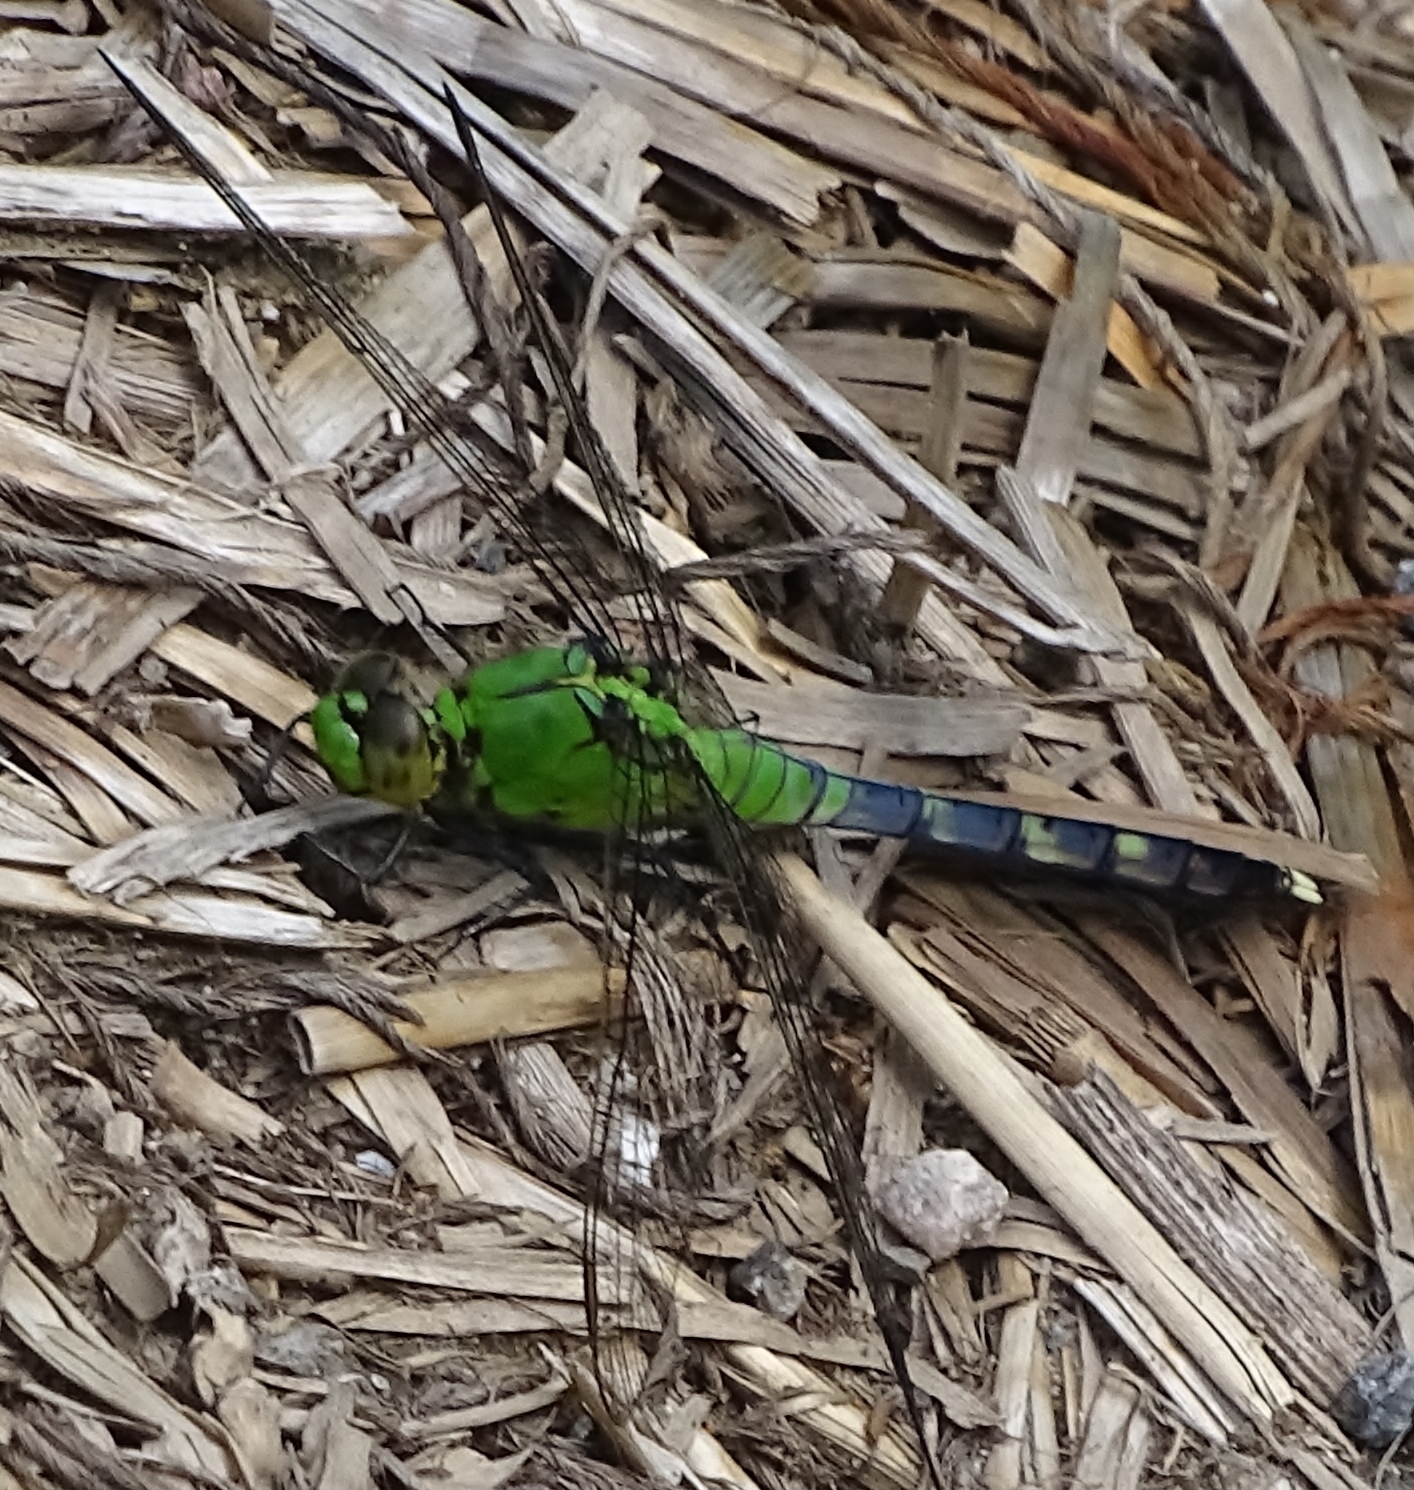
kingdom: Animalia
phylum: Arthropoda
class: Insecta
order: Odonata
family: Libellulidae
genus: Erythemis
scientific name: Erythemis simplicicollis
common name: Eastern pondhawk
